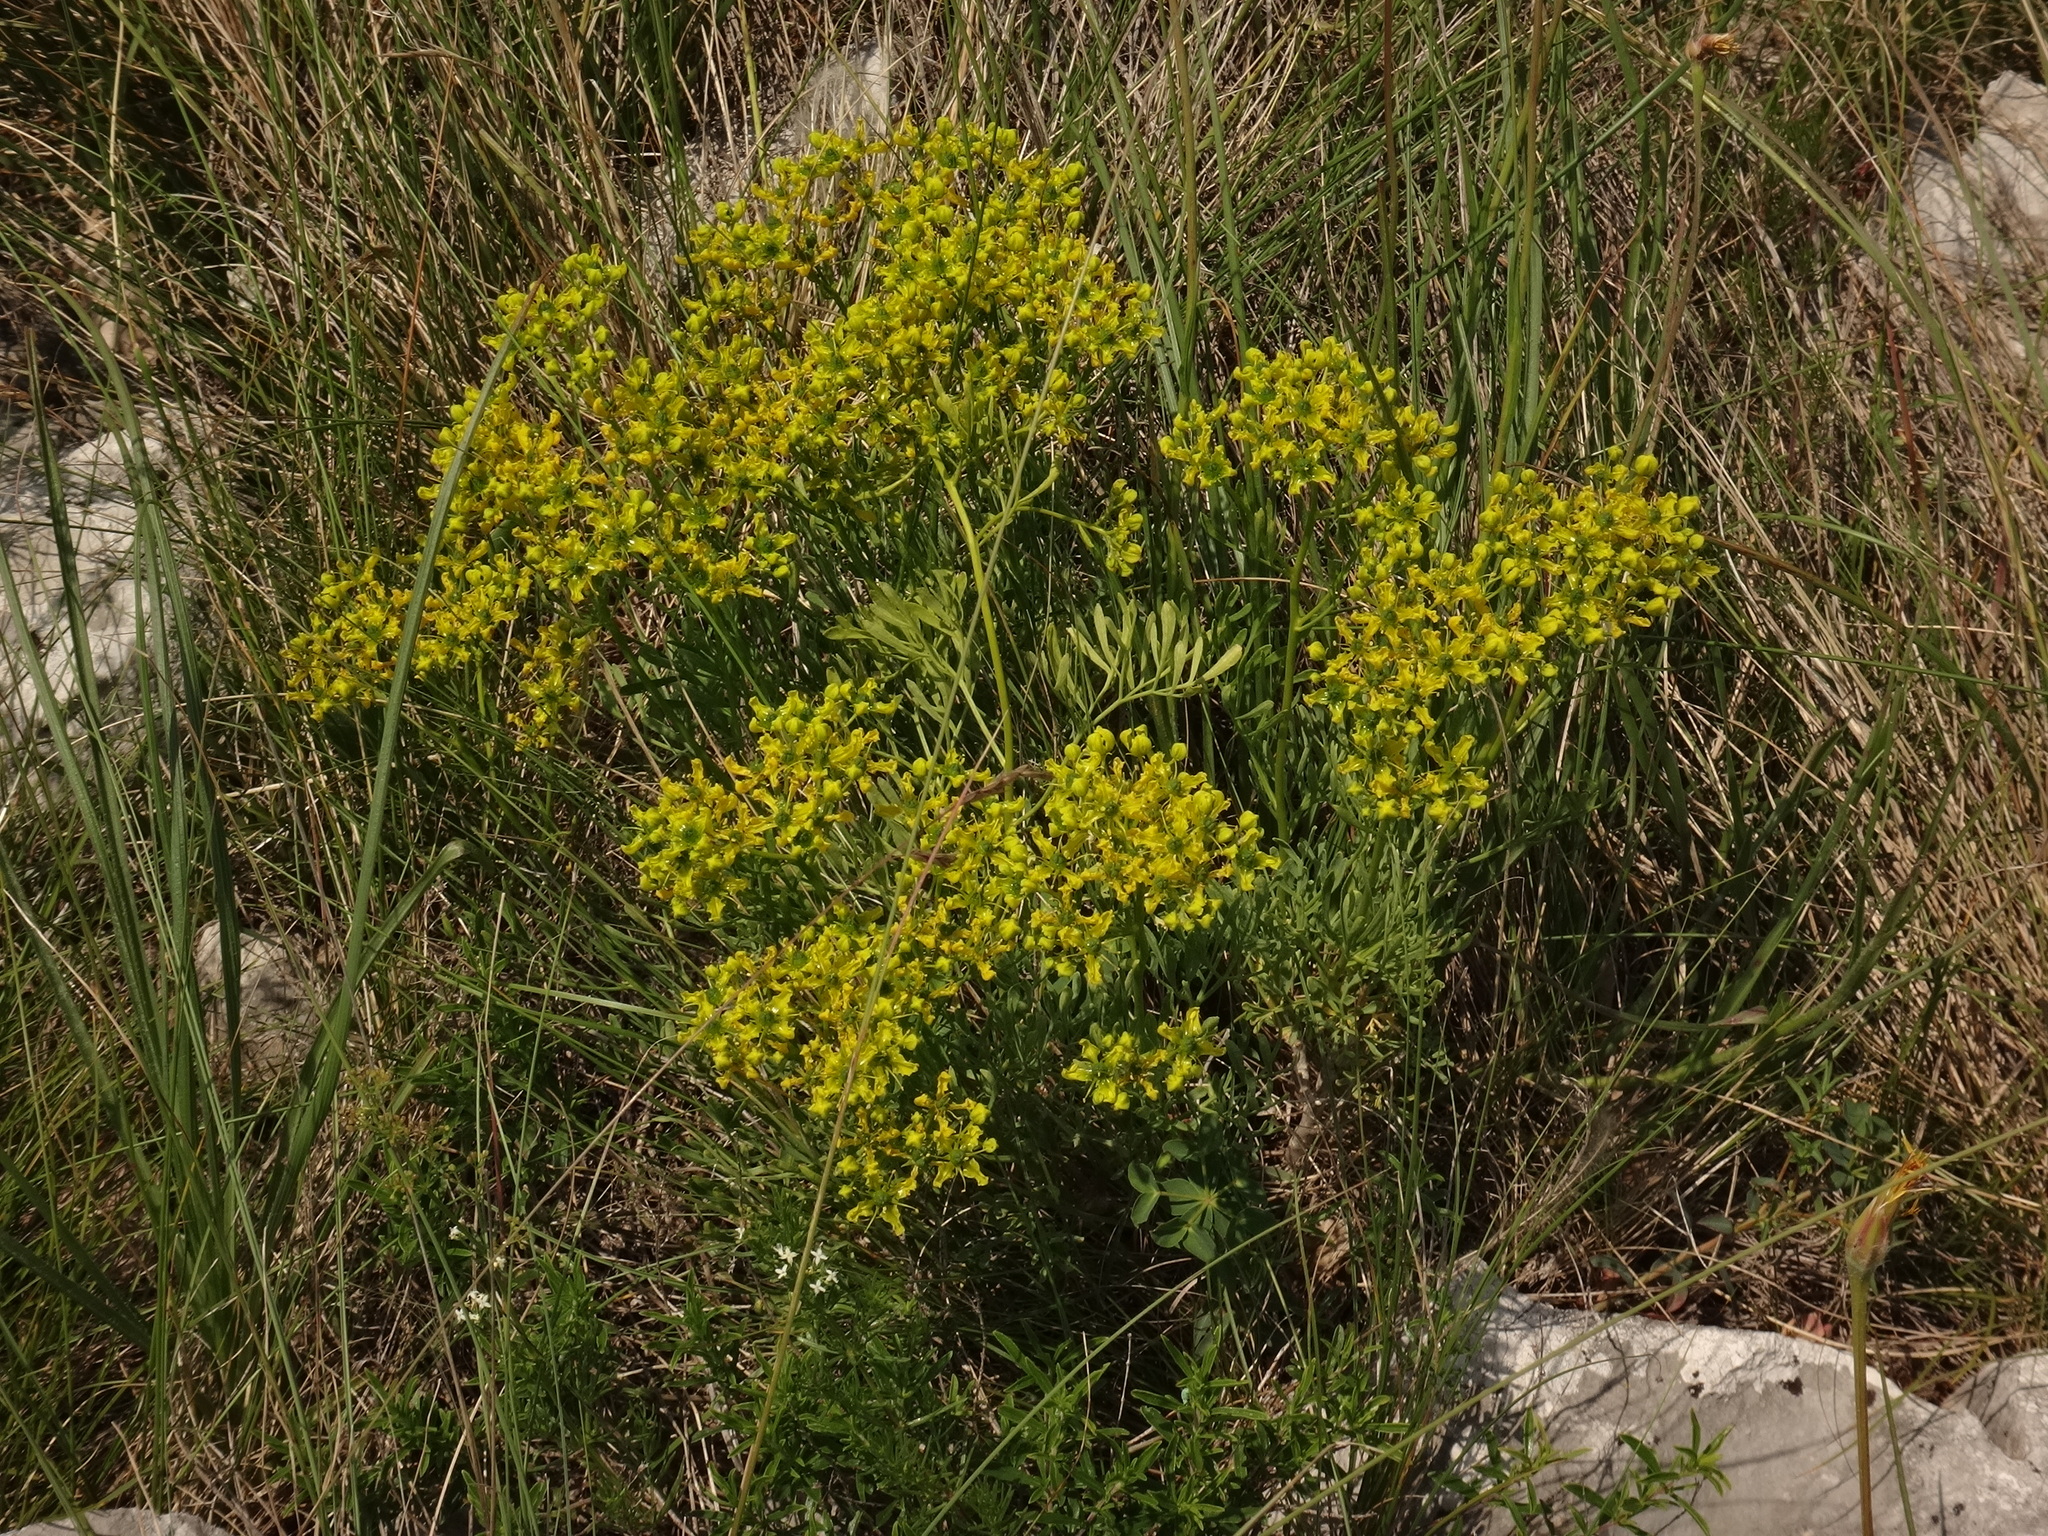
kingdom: Plantae
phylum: Tracheophyta
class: Magnoliopsida
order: Sapindales
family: Rutaceae
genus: Ruta
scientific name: Ruta
